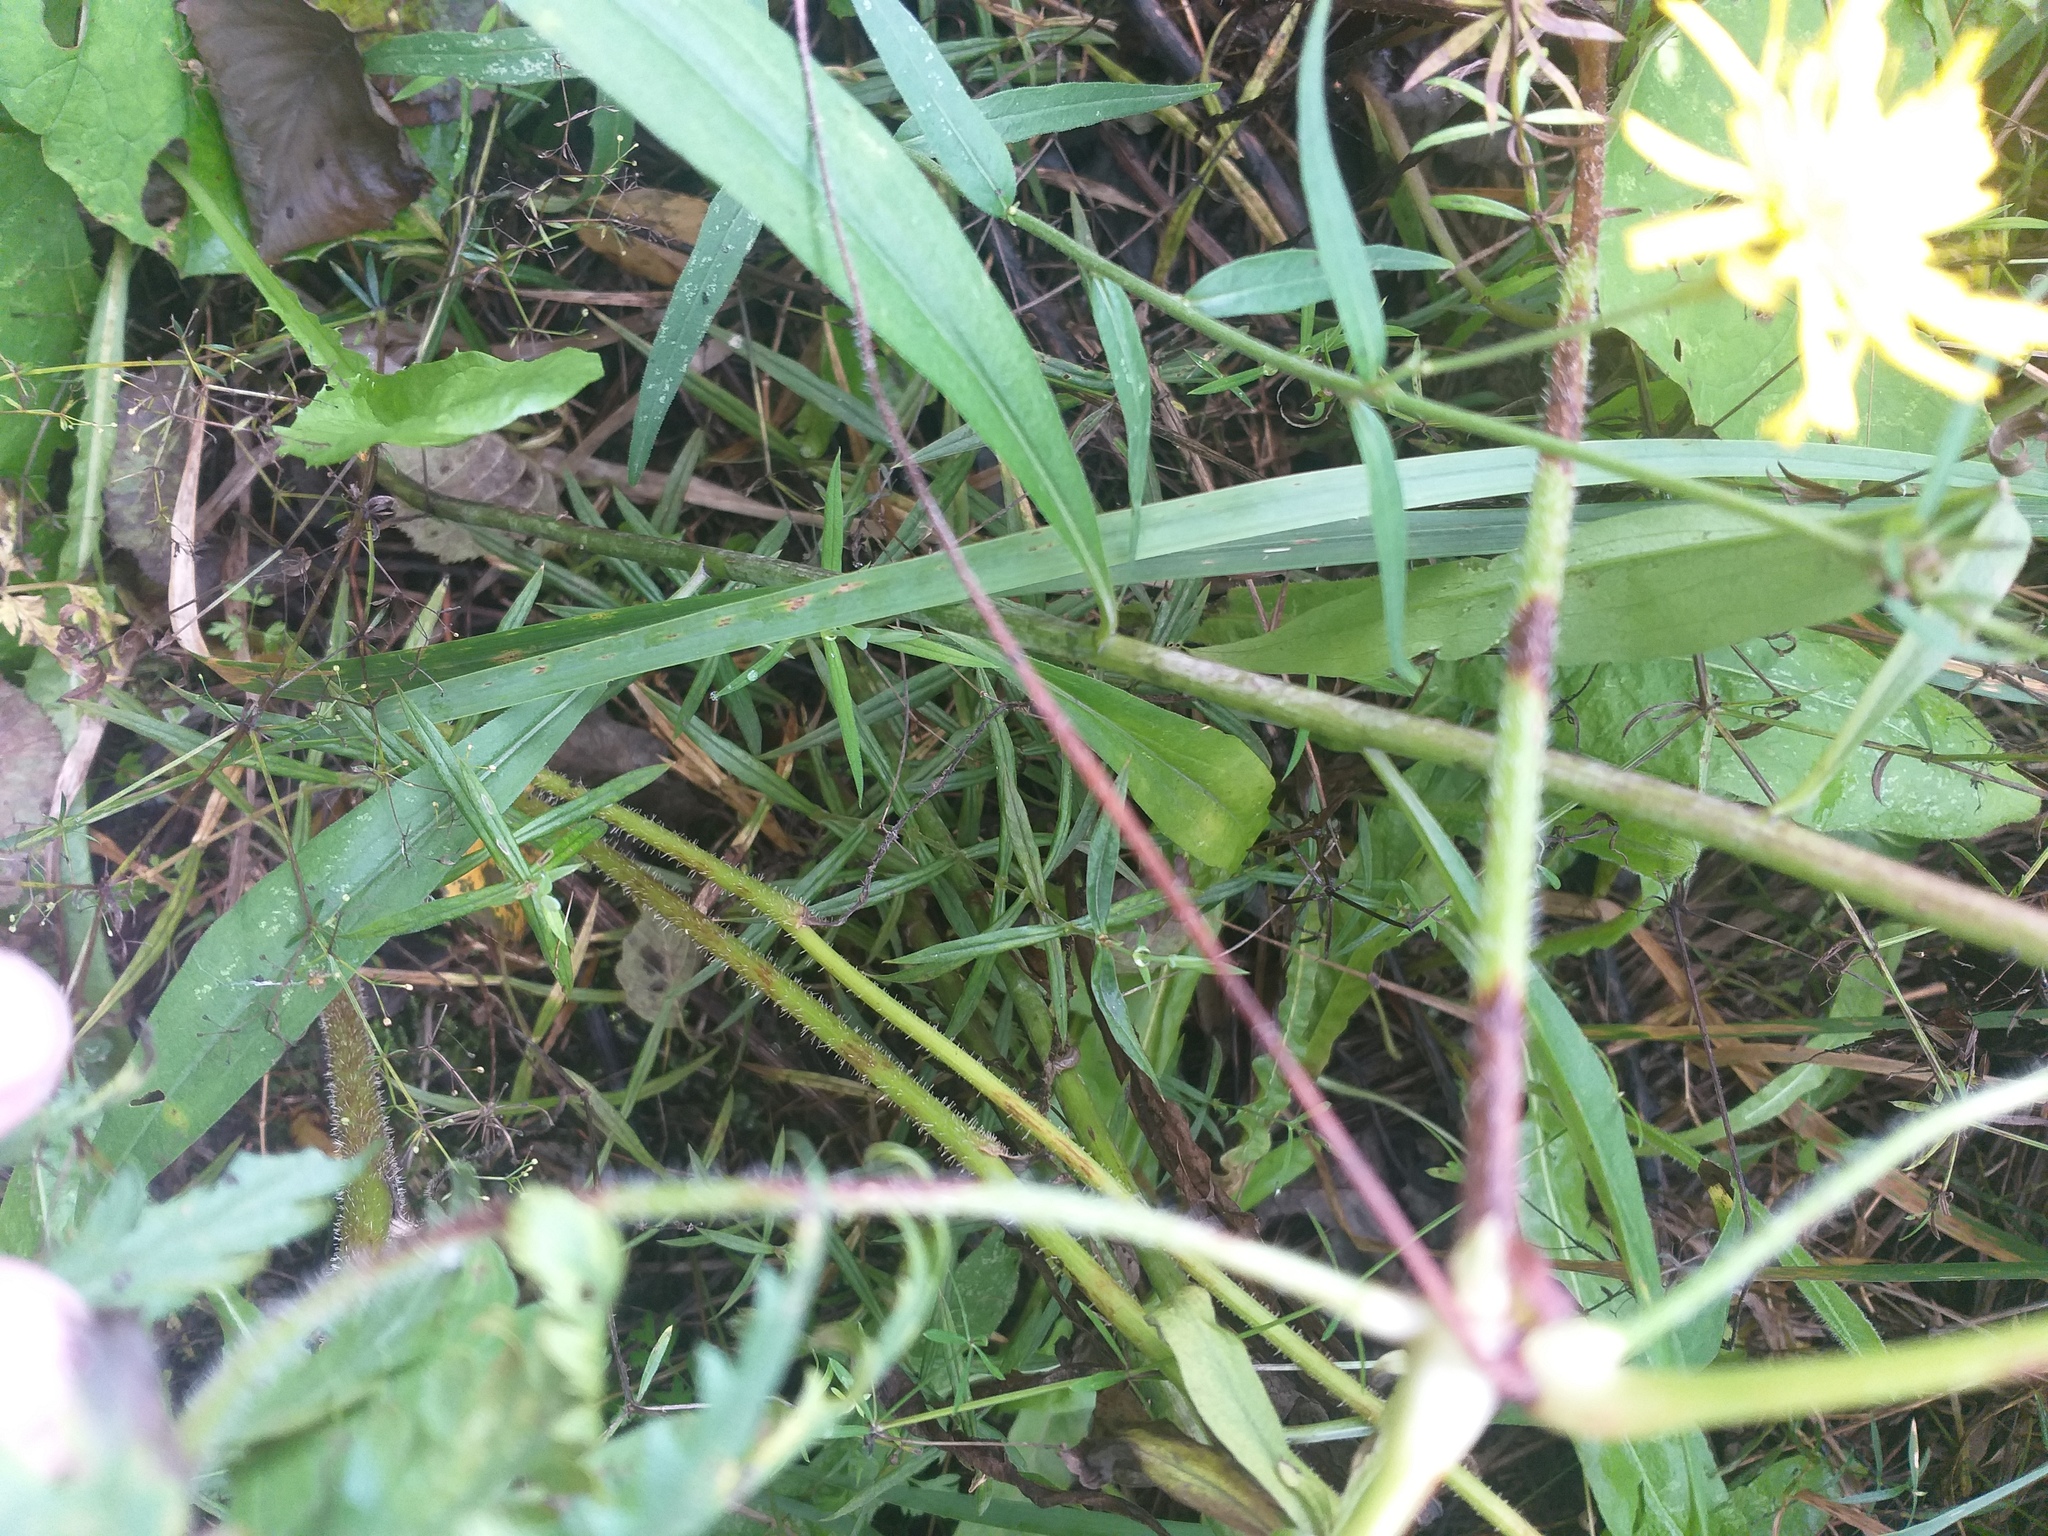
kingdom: Plantae
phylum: Tracheophyta
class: Magnoliopsida
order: Geraniales
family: Geraniaceae
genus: Geranium
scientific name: Geranium palustre
